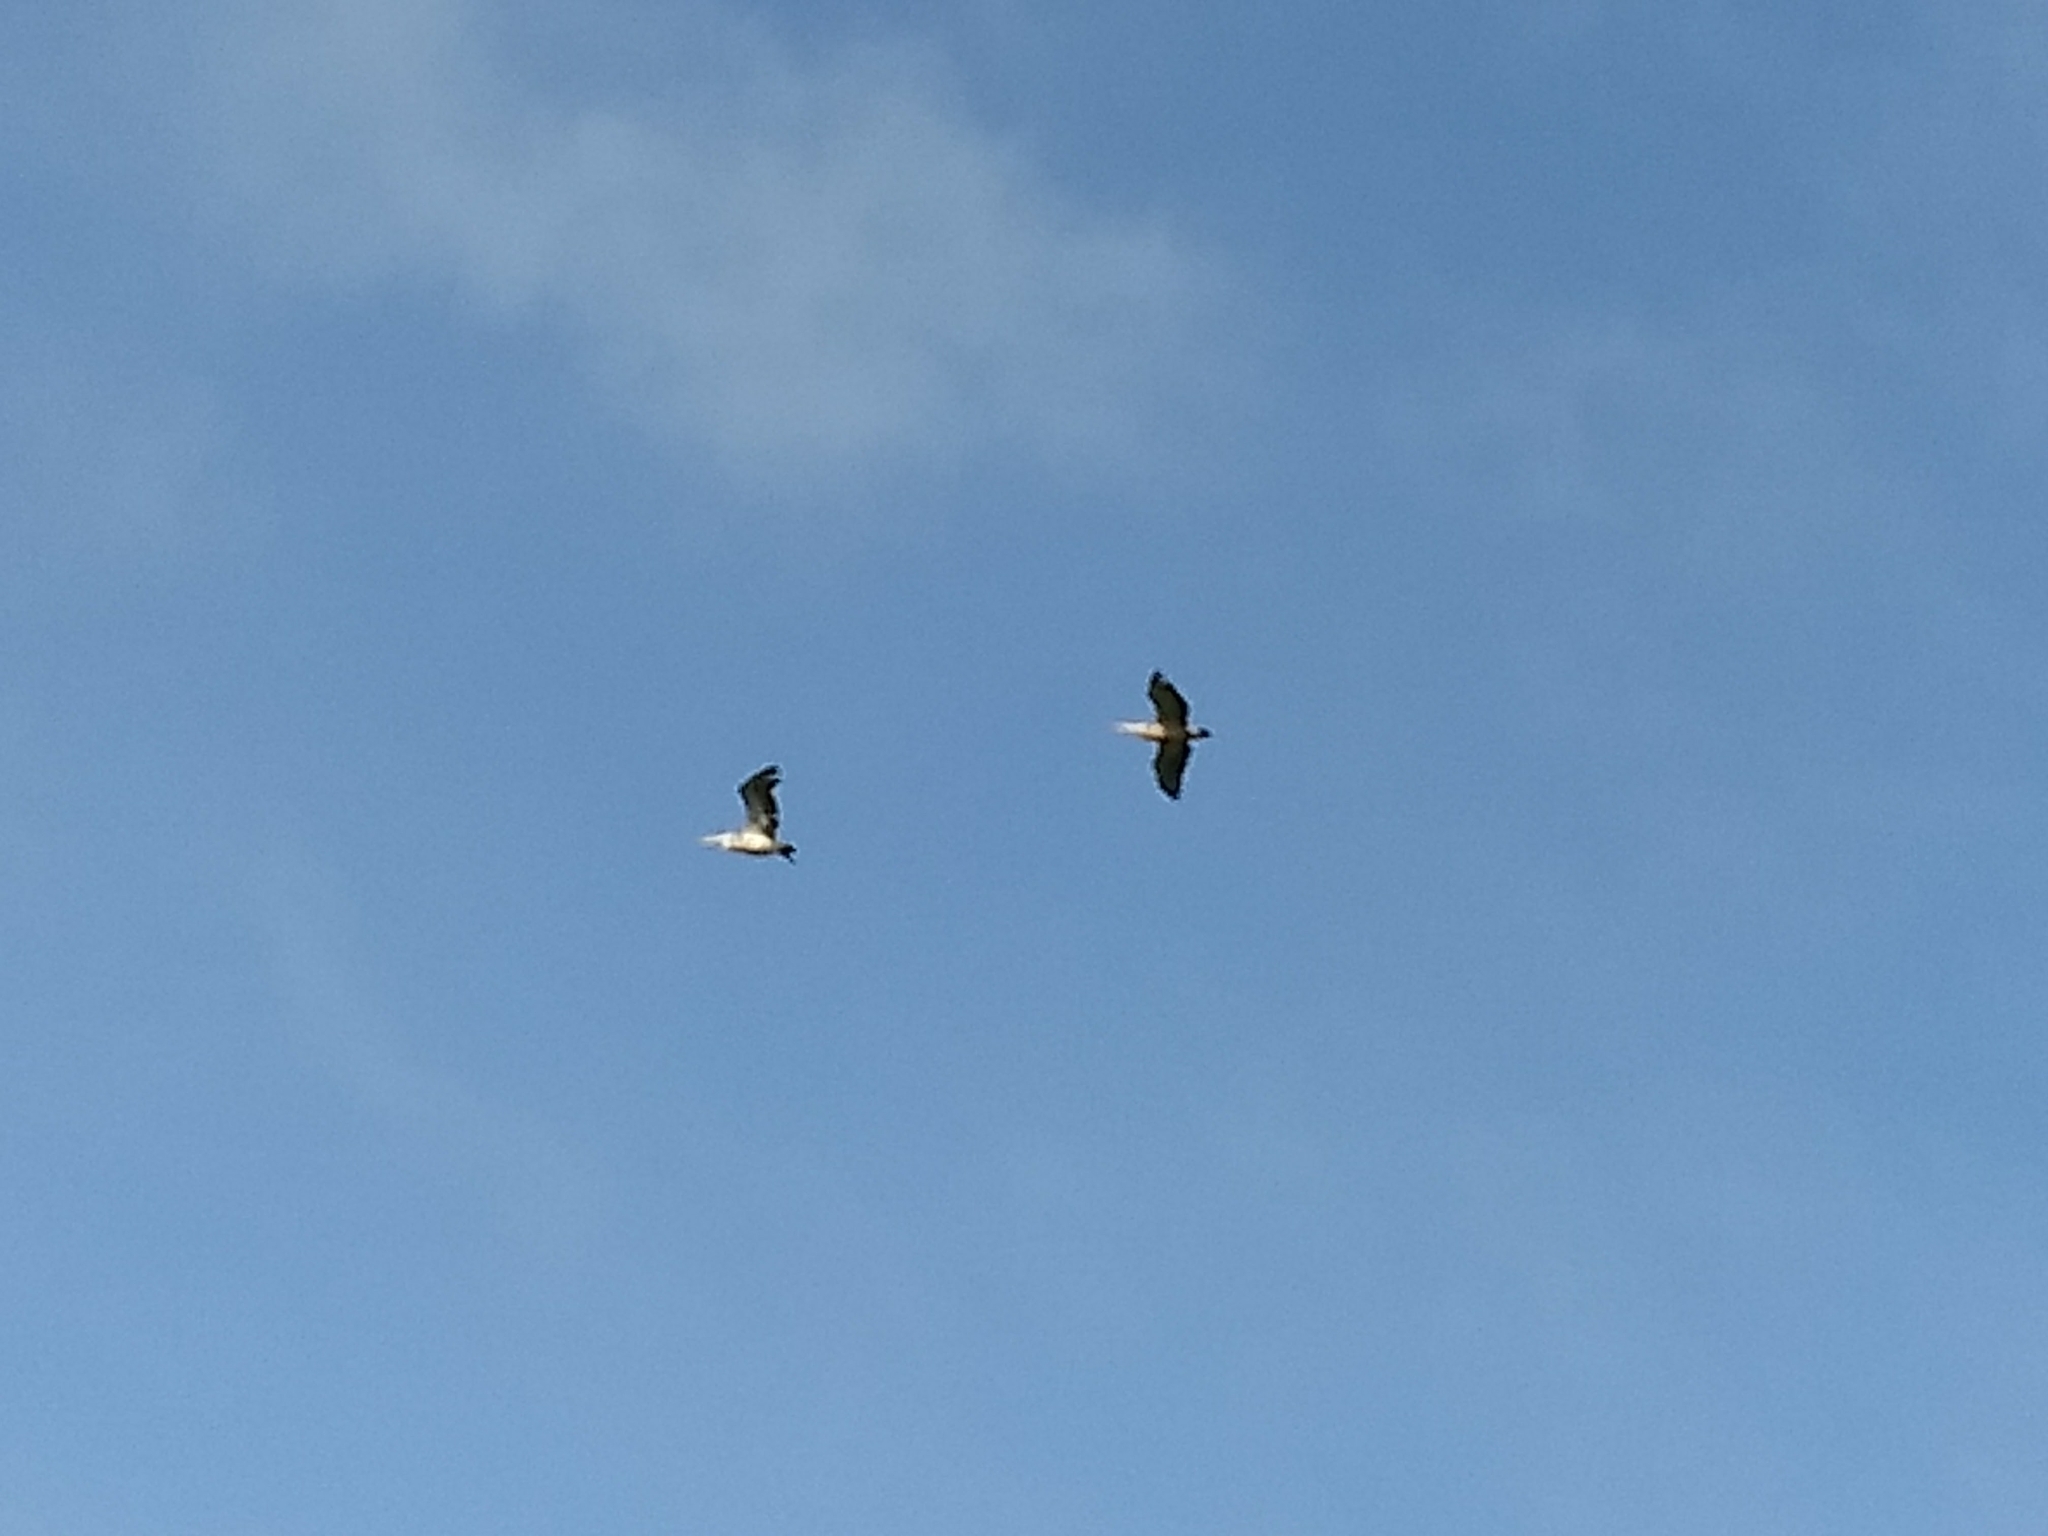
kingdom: Animalia
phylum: Chordata
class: Aves
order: Pelecaniformes
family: Pelecanidae
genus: Pelecanus
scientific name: Pelecanus philippensis
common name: Spot-billed pelican
